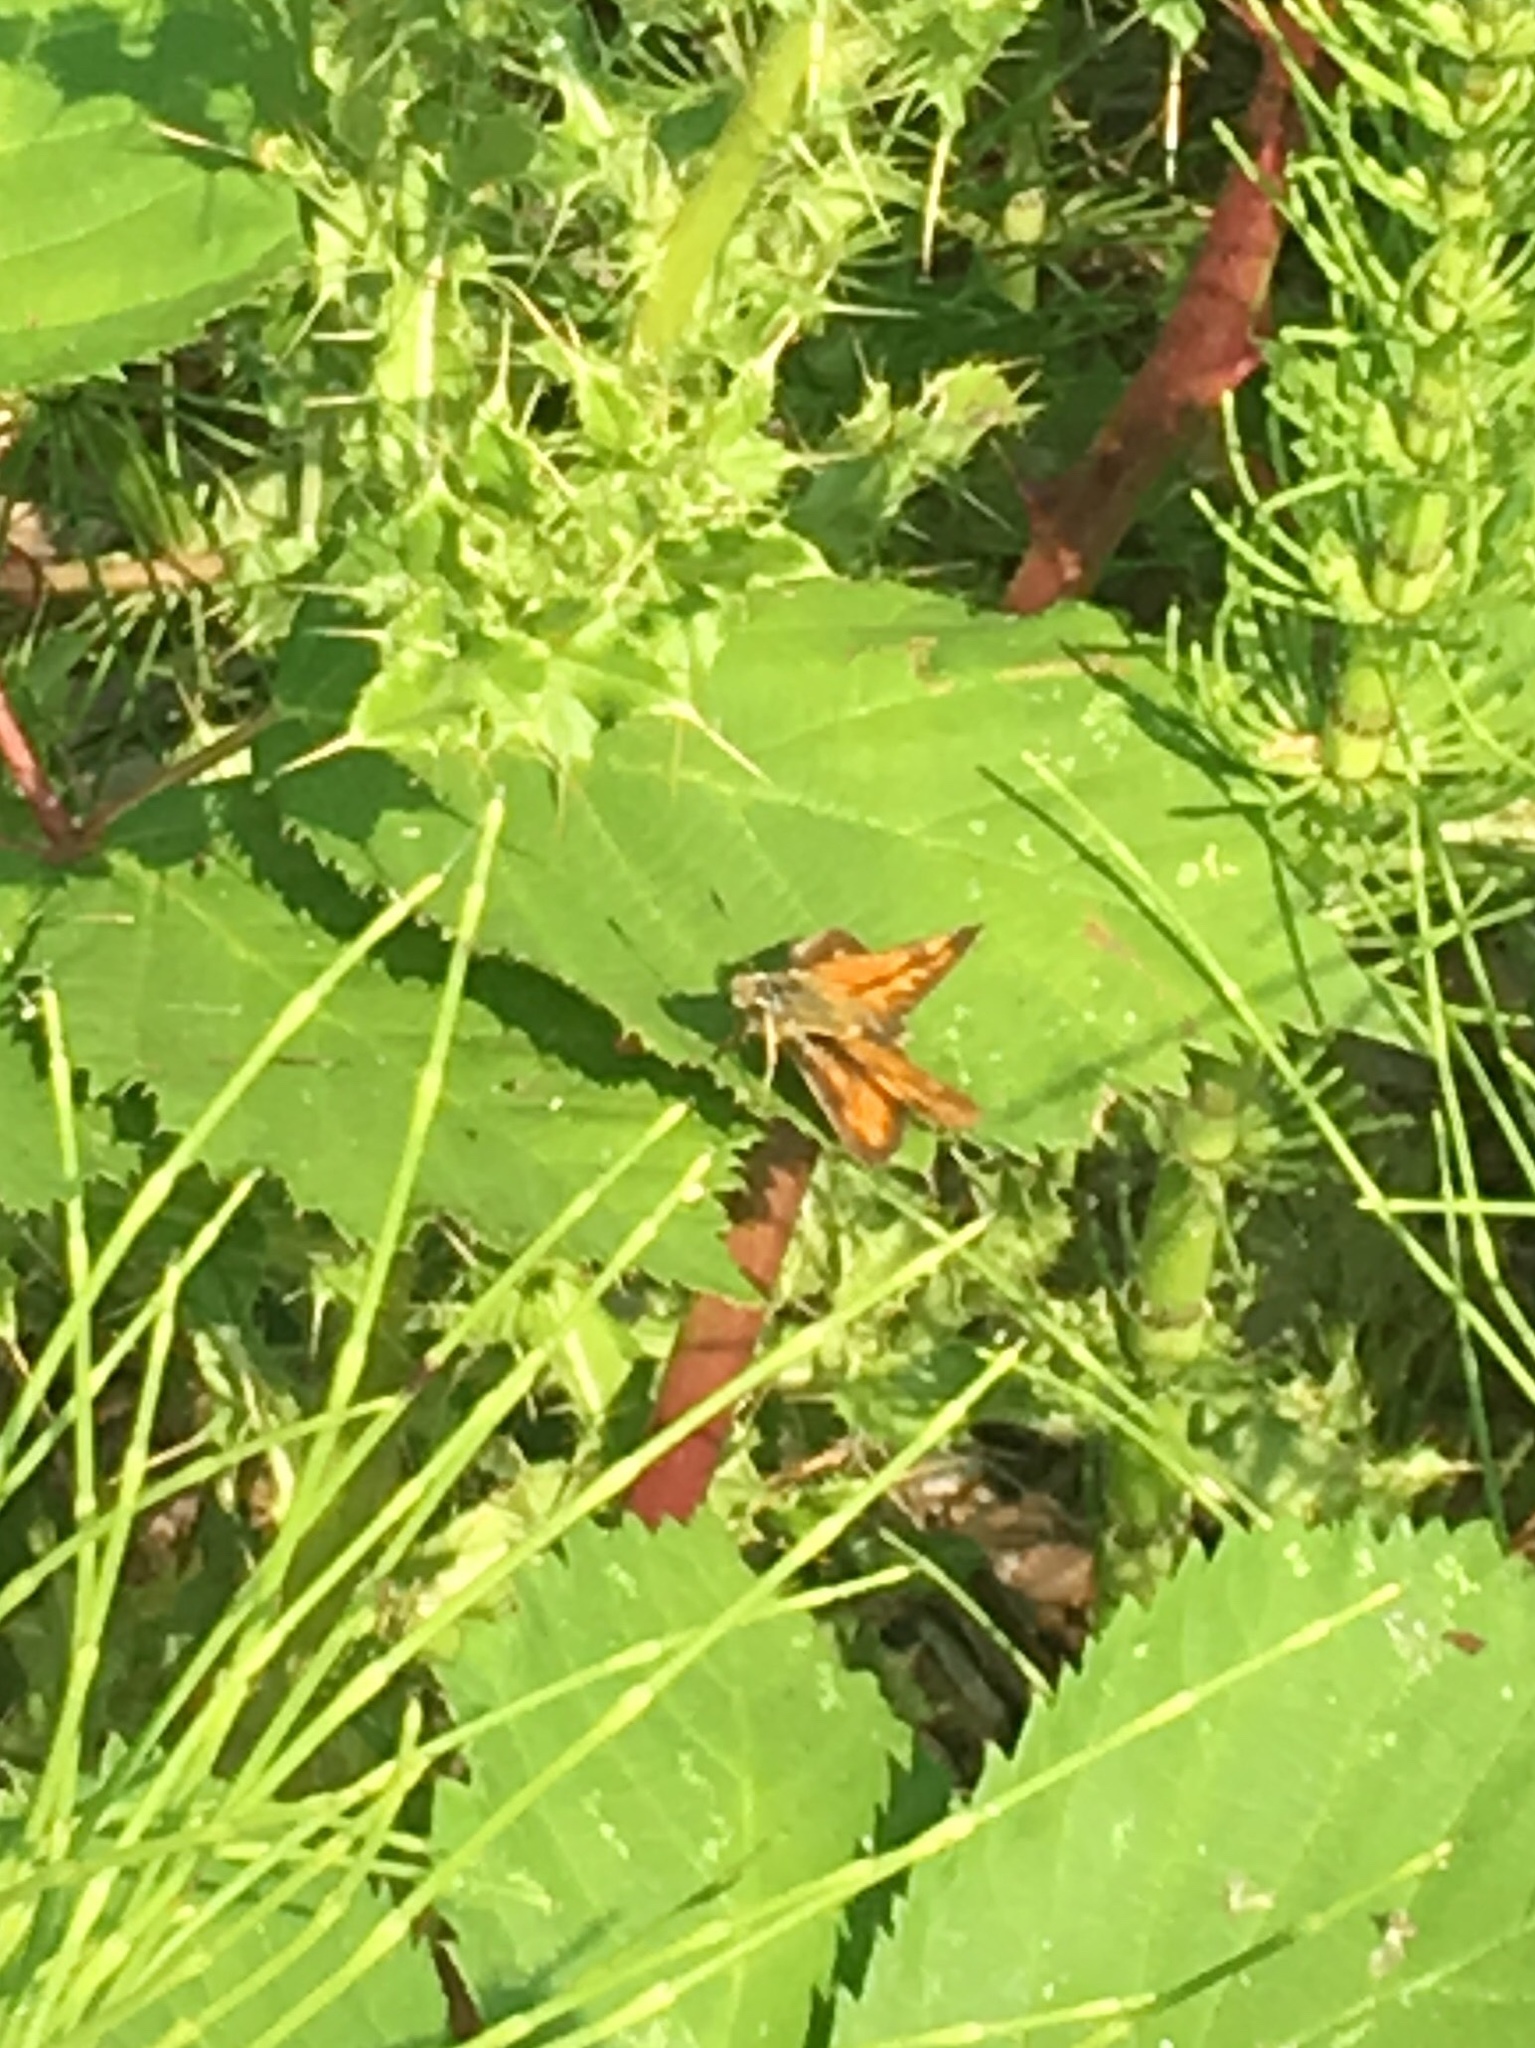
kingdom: Animalia
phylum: Arthropoda
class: Insecta
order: Lepidoptera
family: Hesperiidae
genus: Ochlodes
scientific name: Ochlodes sylvanoides
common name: Woodland skipper
